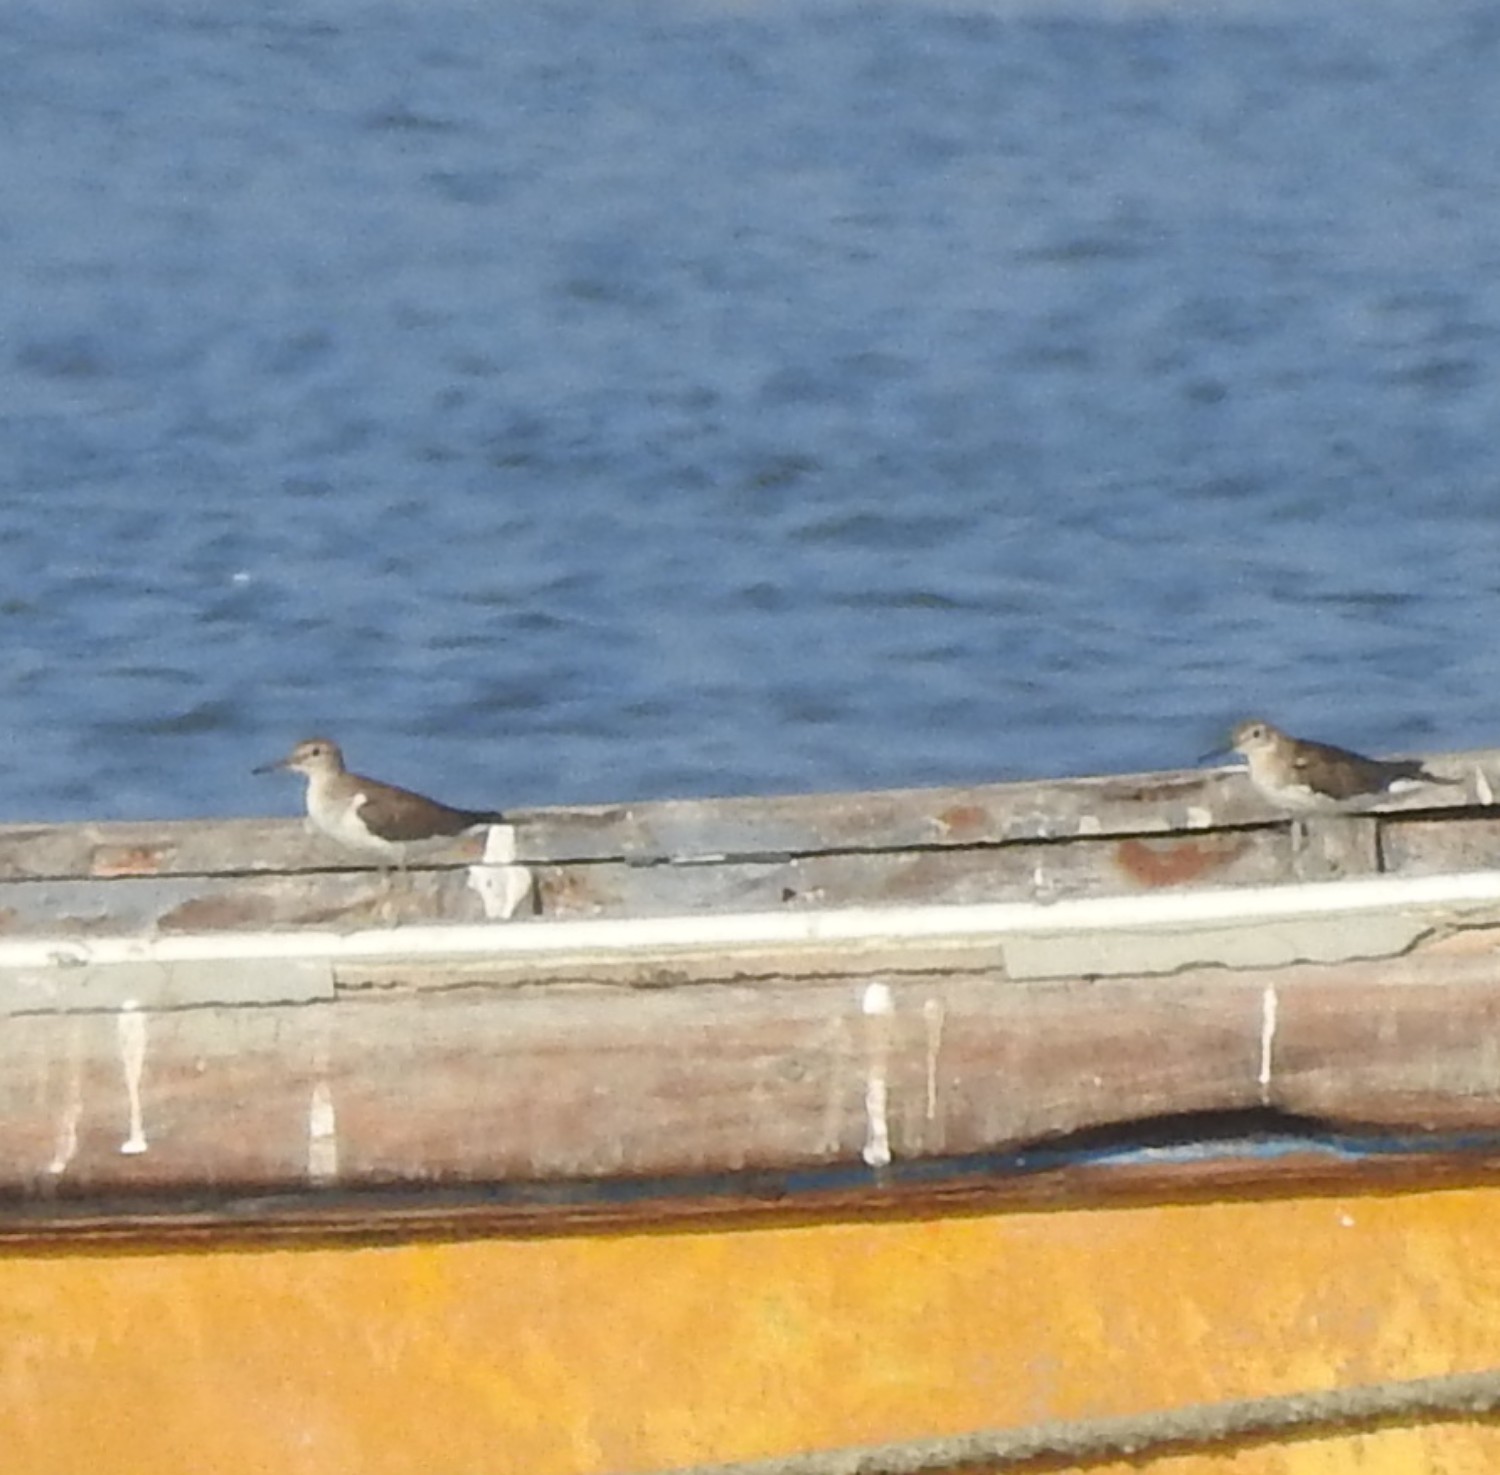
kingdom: Animalia
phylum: Chordata
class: Aves
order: Charadriiformes
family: Scolopacidae
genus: Actitis
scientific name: Actitis hypoleucos
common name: Common sandpiper
